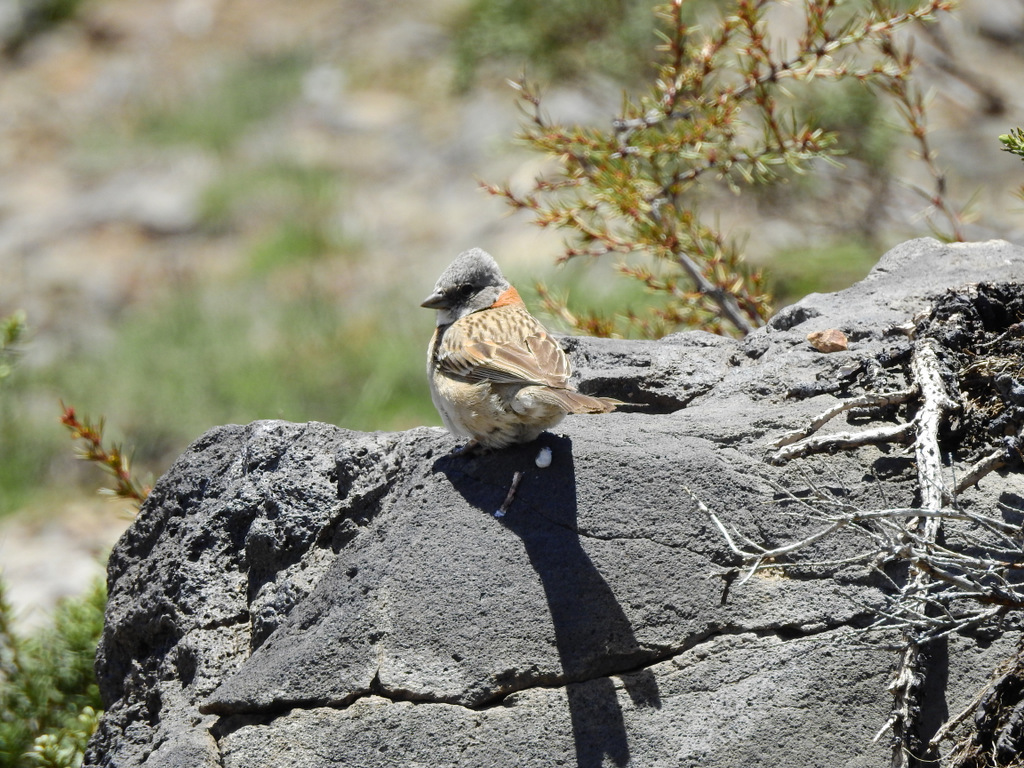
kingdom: Animalia
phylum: Chordata
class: Aves
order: Passeriformes
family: Passerellidae
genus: Zonotrichia
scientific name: Zonotrichia capensis
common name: Rufous-collared sparrow
